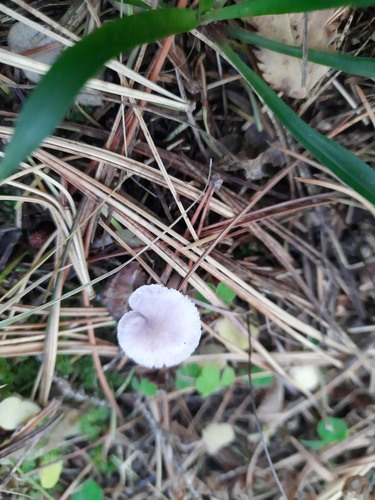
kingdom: Fungi
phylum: Basidiomycota
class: Agaricomycetes
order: Agaricales
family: Mycenaceae
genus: Mycena
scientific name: Mycena pura
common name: Lilac bonnet
